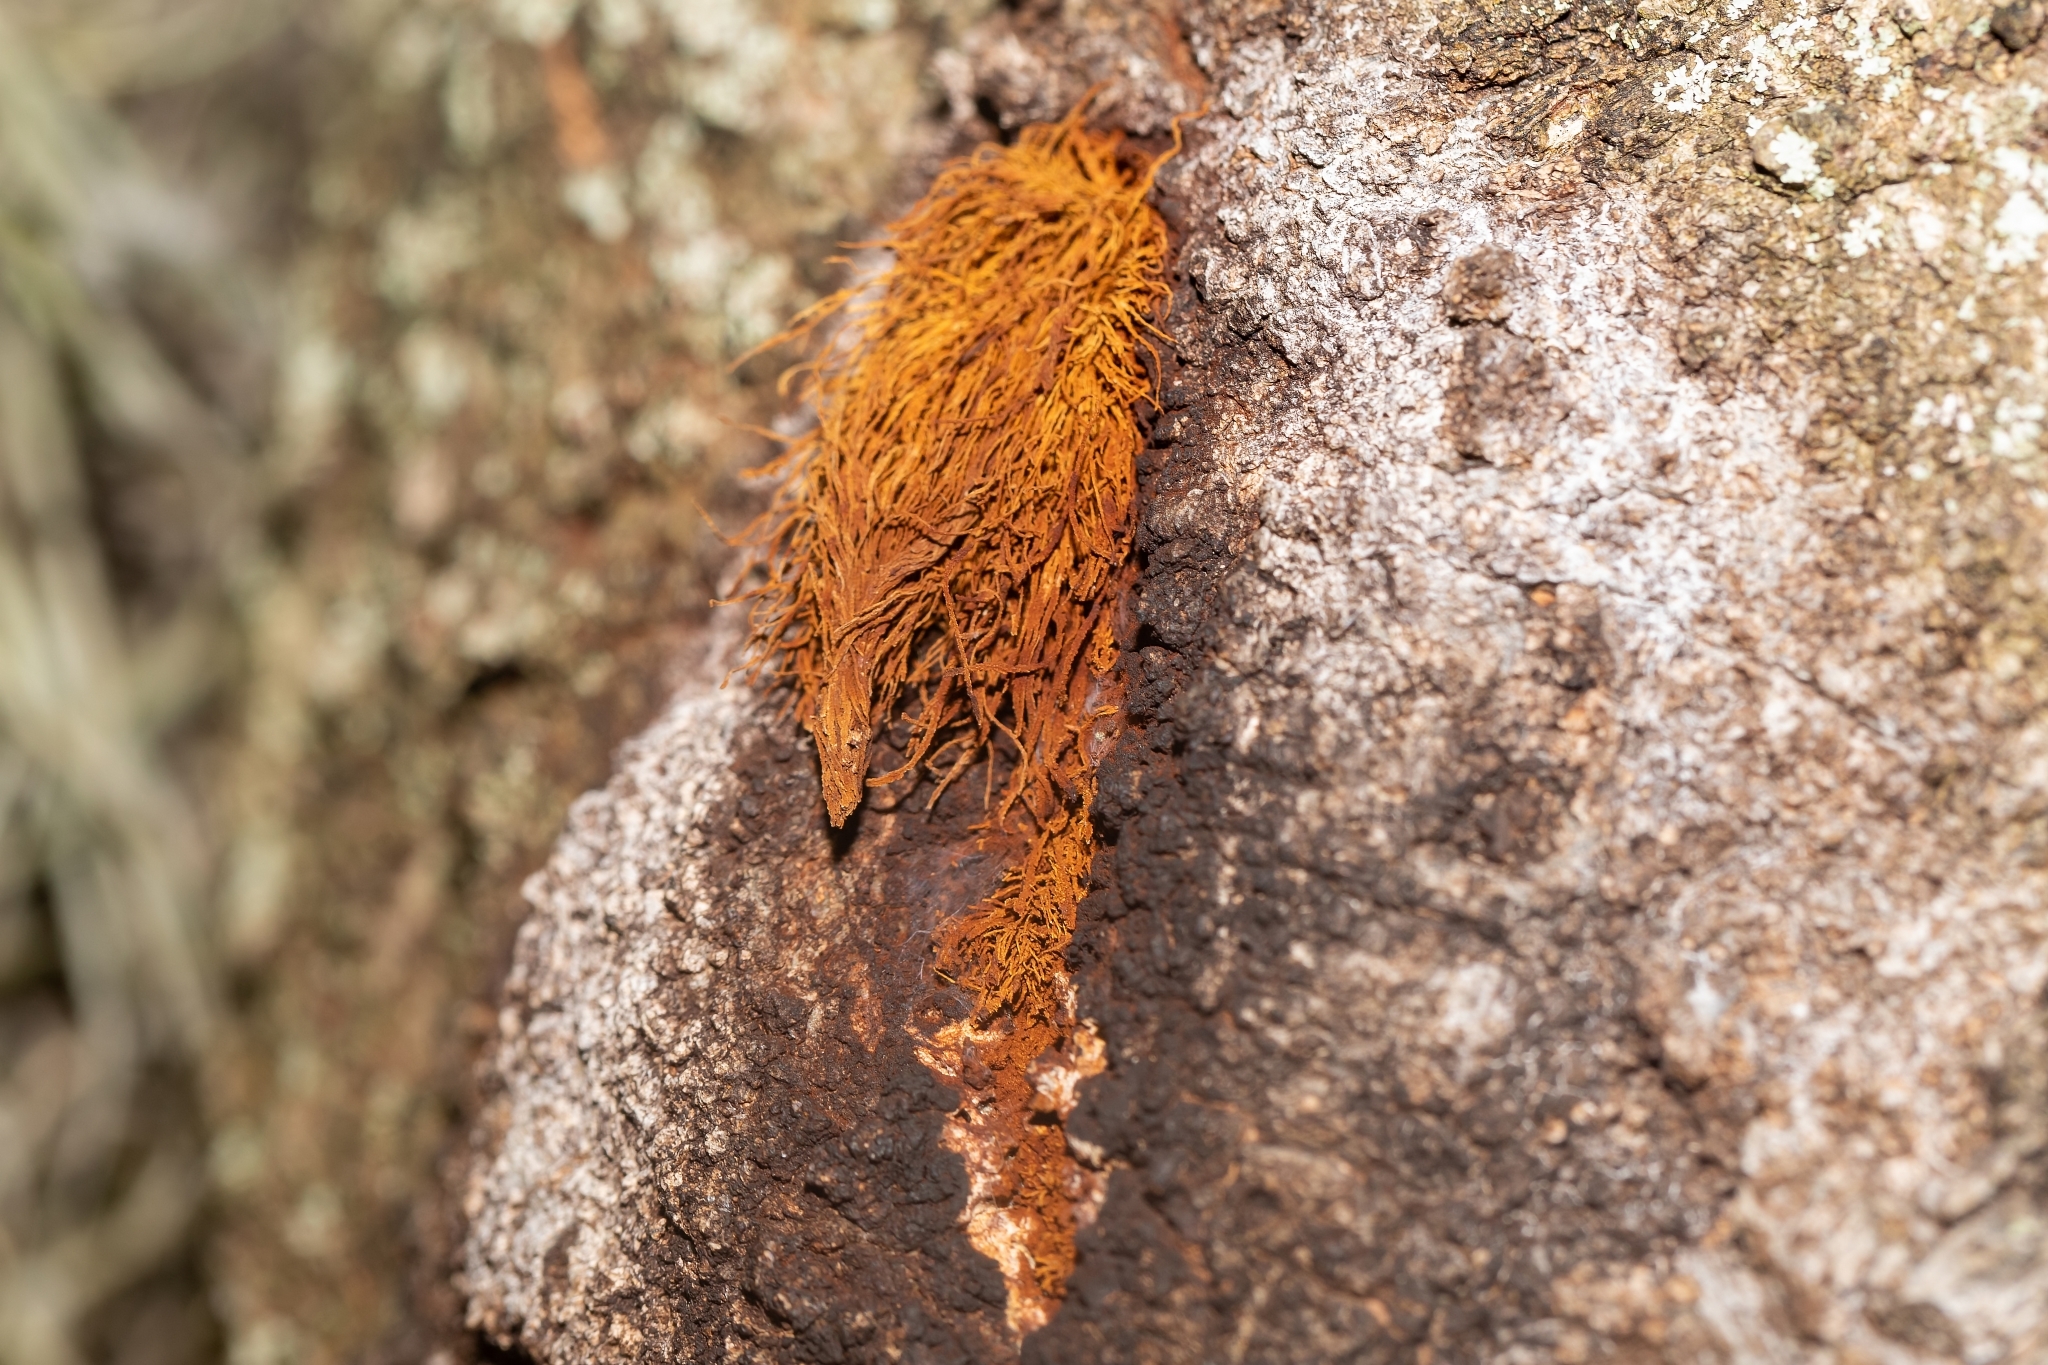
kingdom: Fungi
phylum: Basidiomycota
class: Agaricomycetes
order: Hymenochaetales
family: Hymenochaetaceae
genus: Inonotus
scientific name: Inonotus rickii
